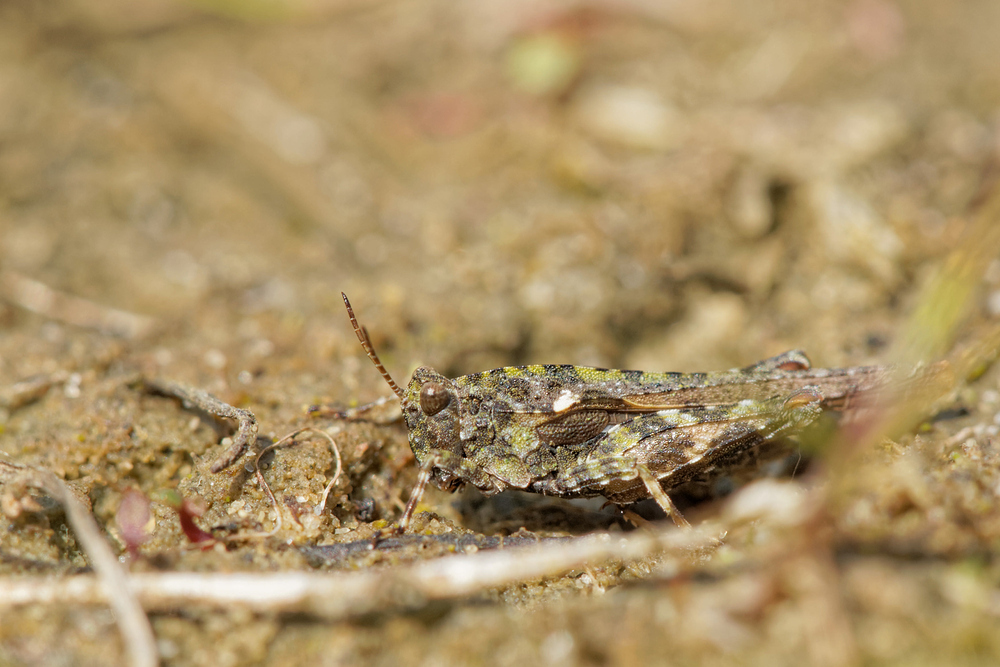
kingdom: Animalia
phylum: Arthropoda
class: Insecta
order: Orthoptera
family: Tetrigidae
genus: Tetrix
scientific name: Tetrix ceperoi
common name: Cepero's ground-hopper
